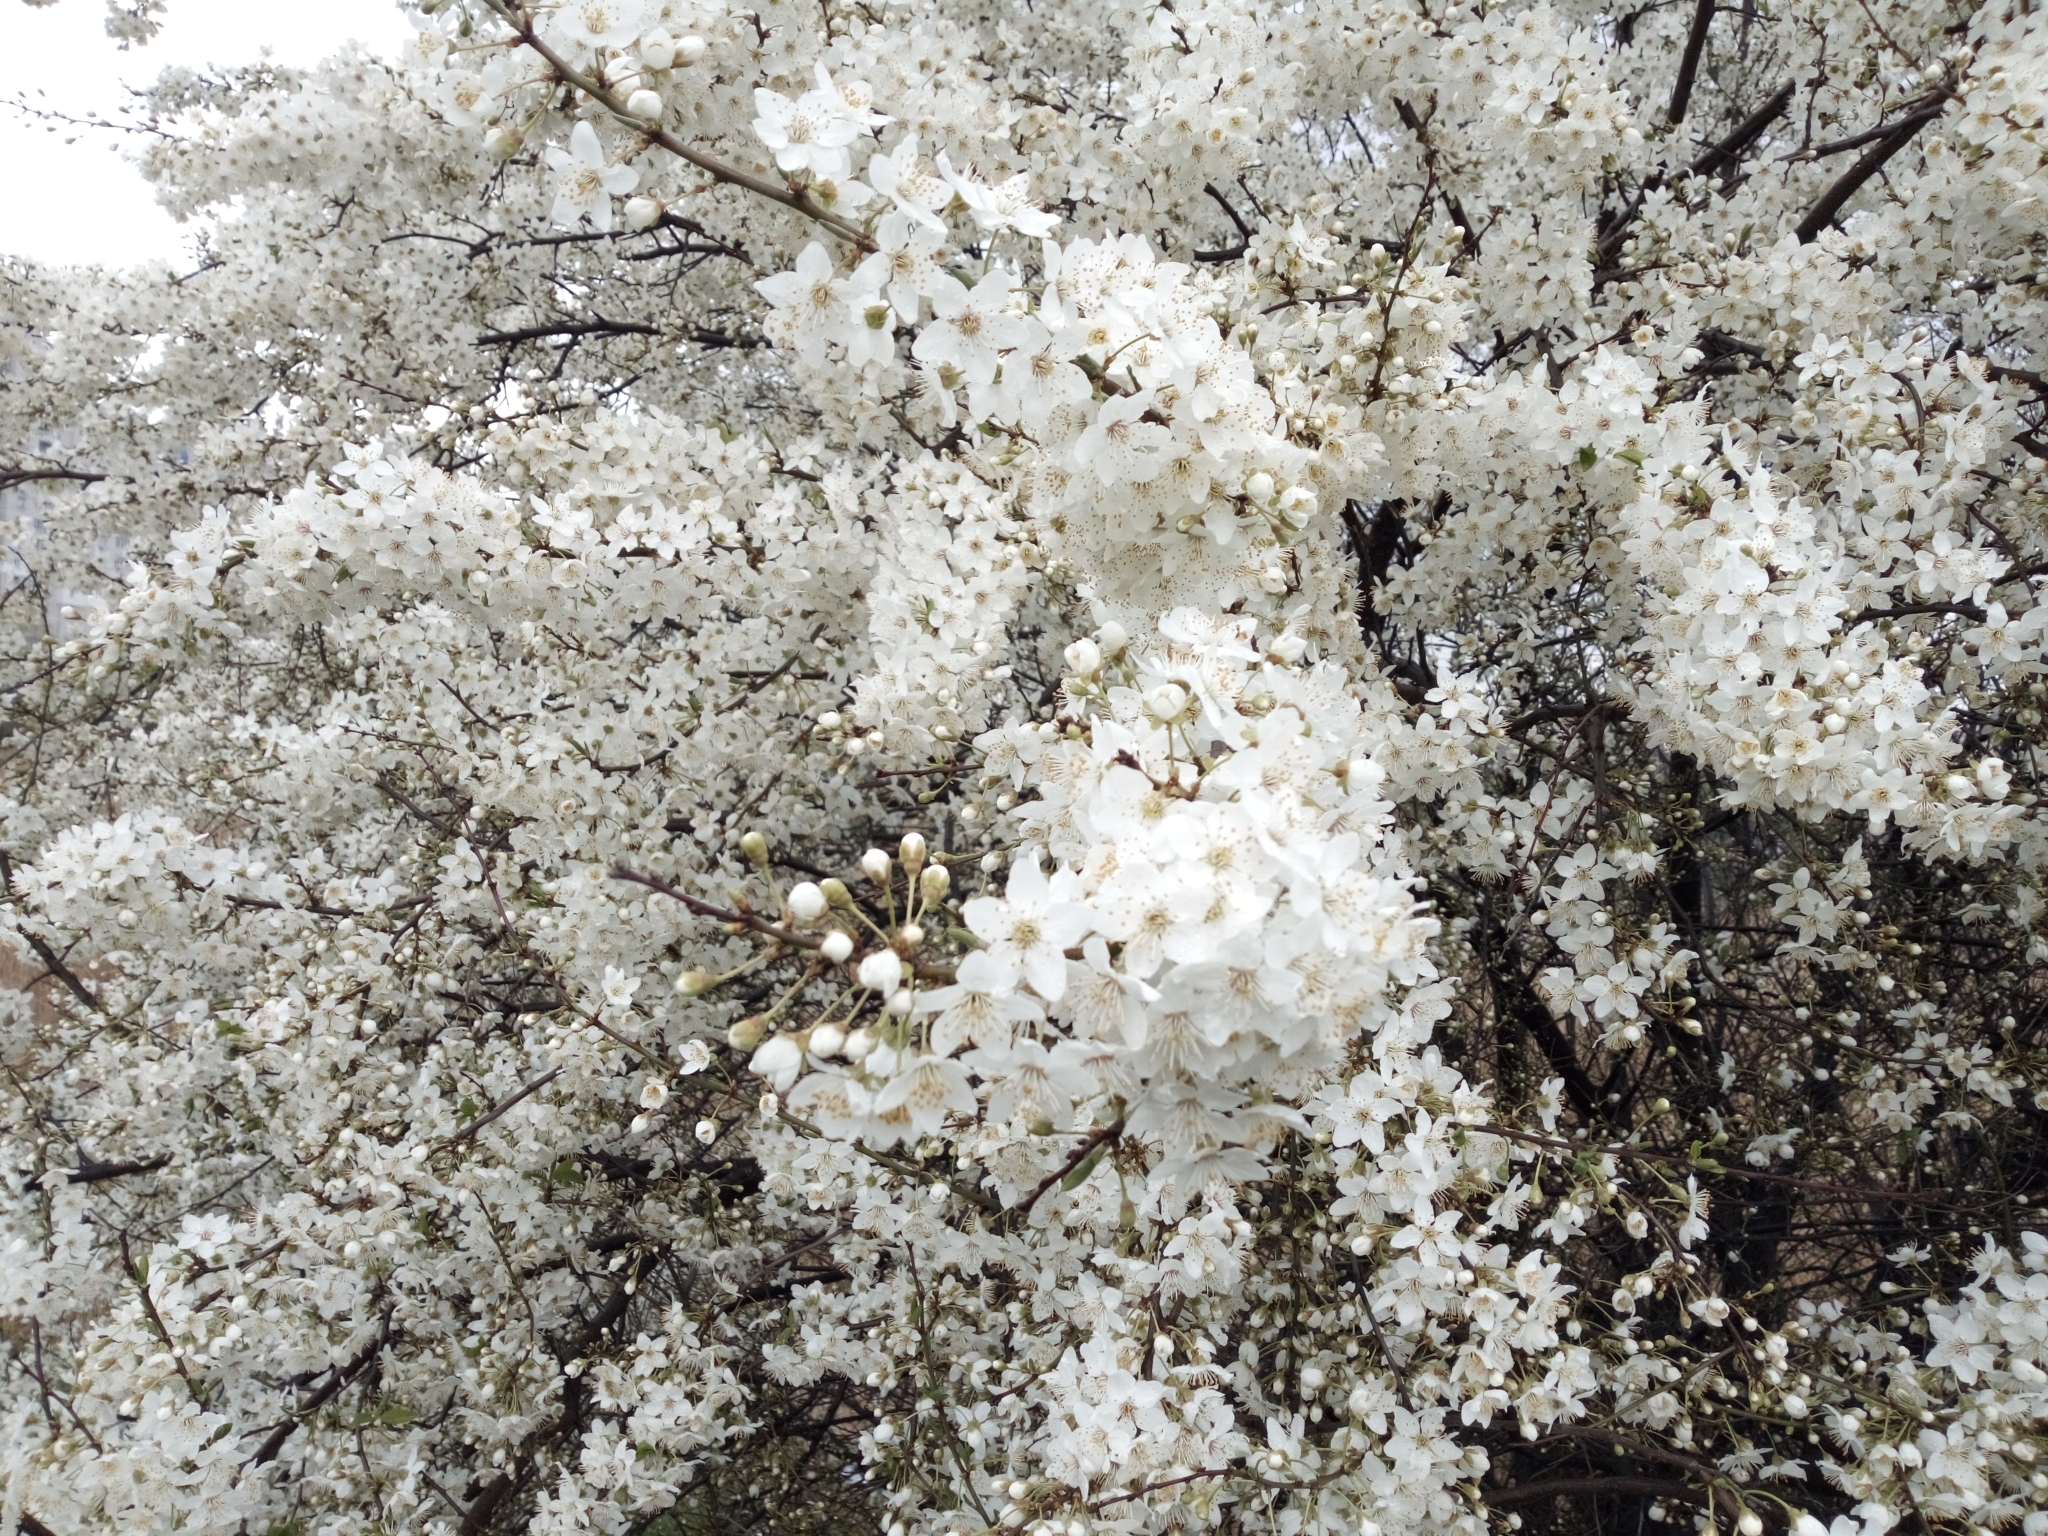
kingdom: Plantae
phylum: Tracheophyta
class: Magnoliopsida
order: Rosales
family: Rosaceae
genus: Prunus
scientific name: Prunus cerasifera
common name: Cherry plum
